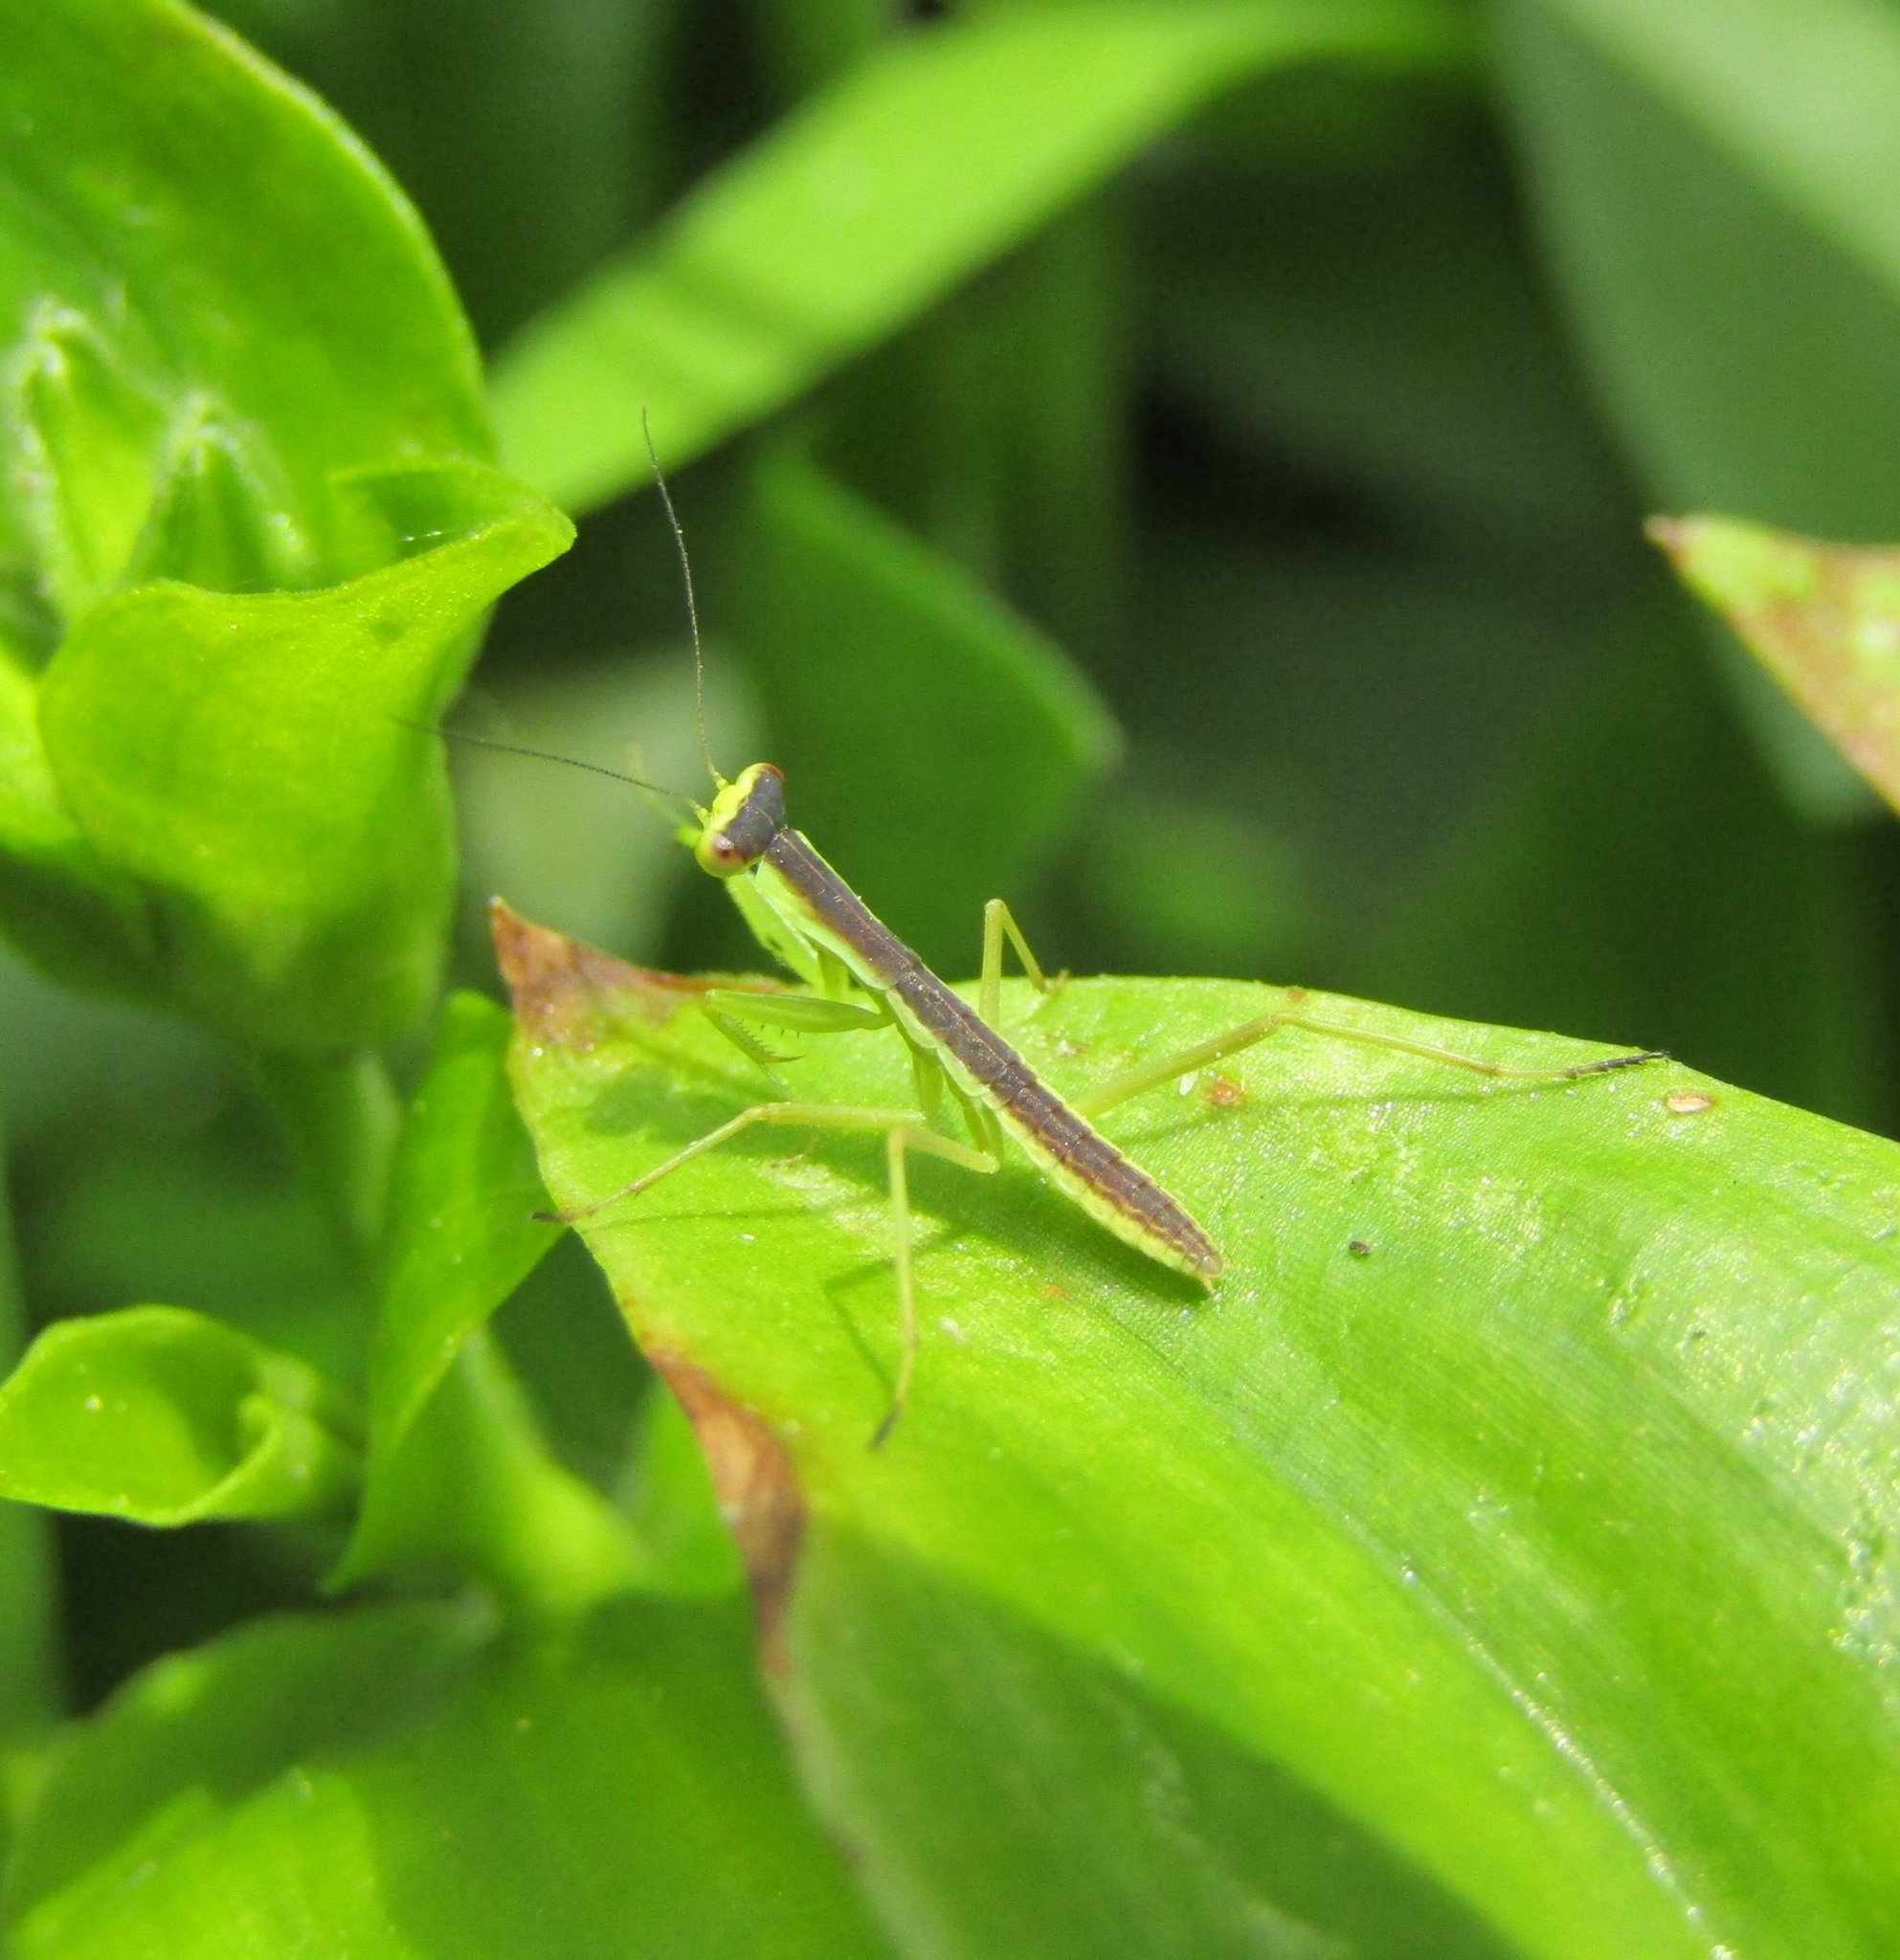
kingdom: Animalia
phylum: Arthropoda
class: Insecta
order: Mantodea
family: Mantidae
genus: Orthodera
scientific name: Orthodera novaezealandiae
